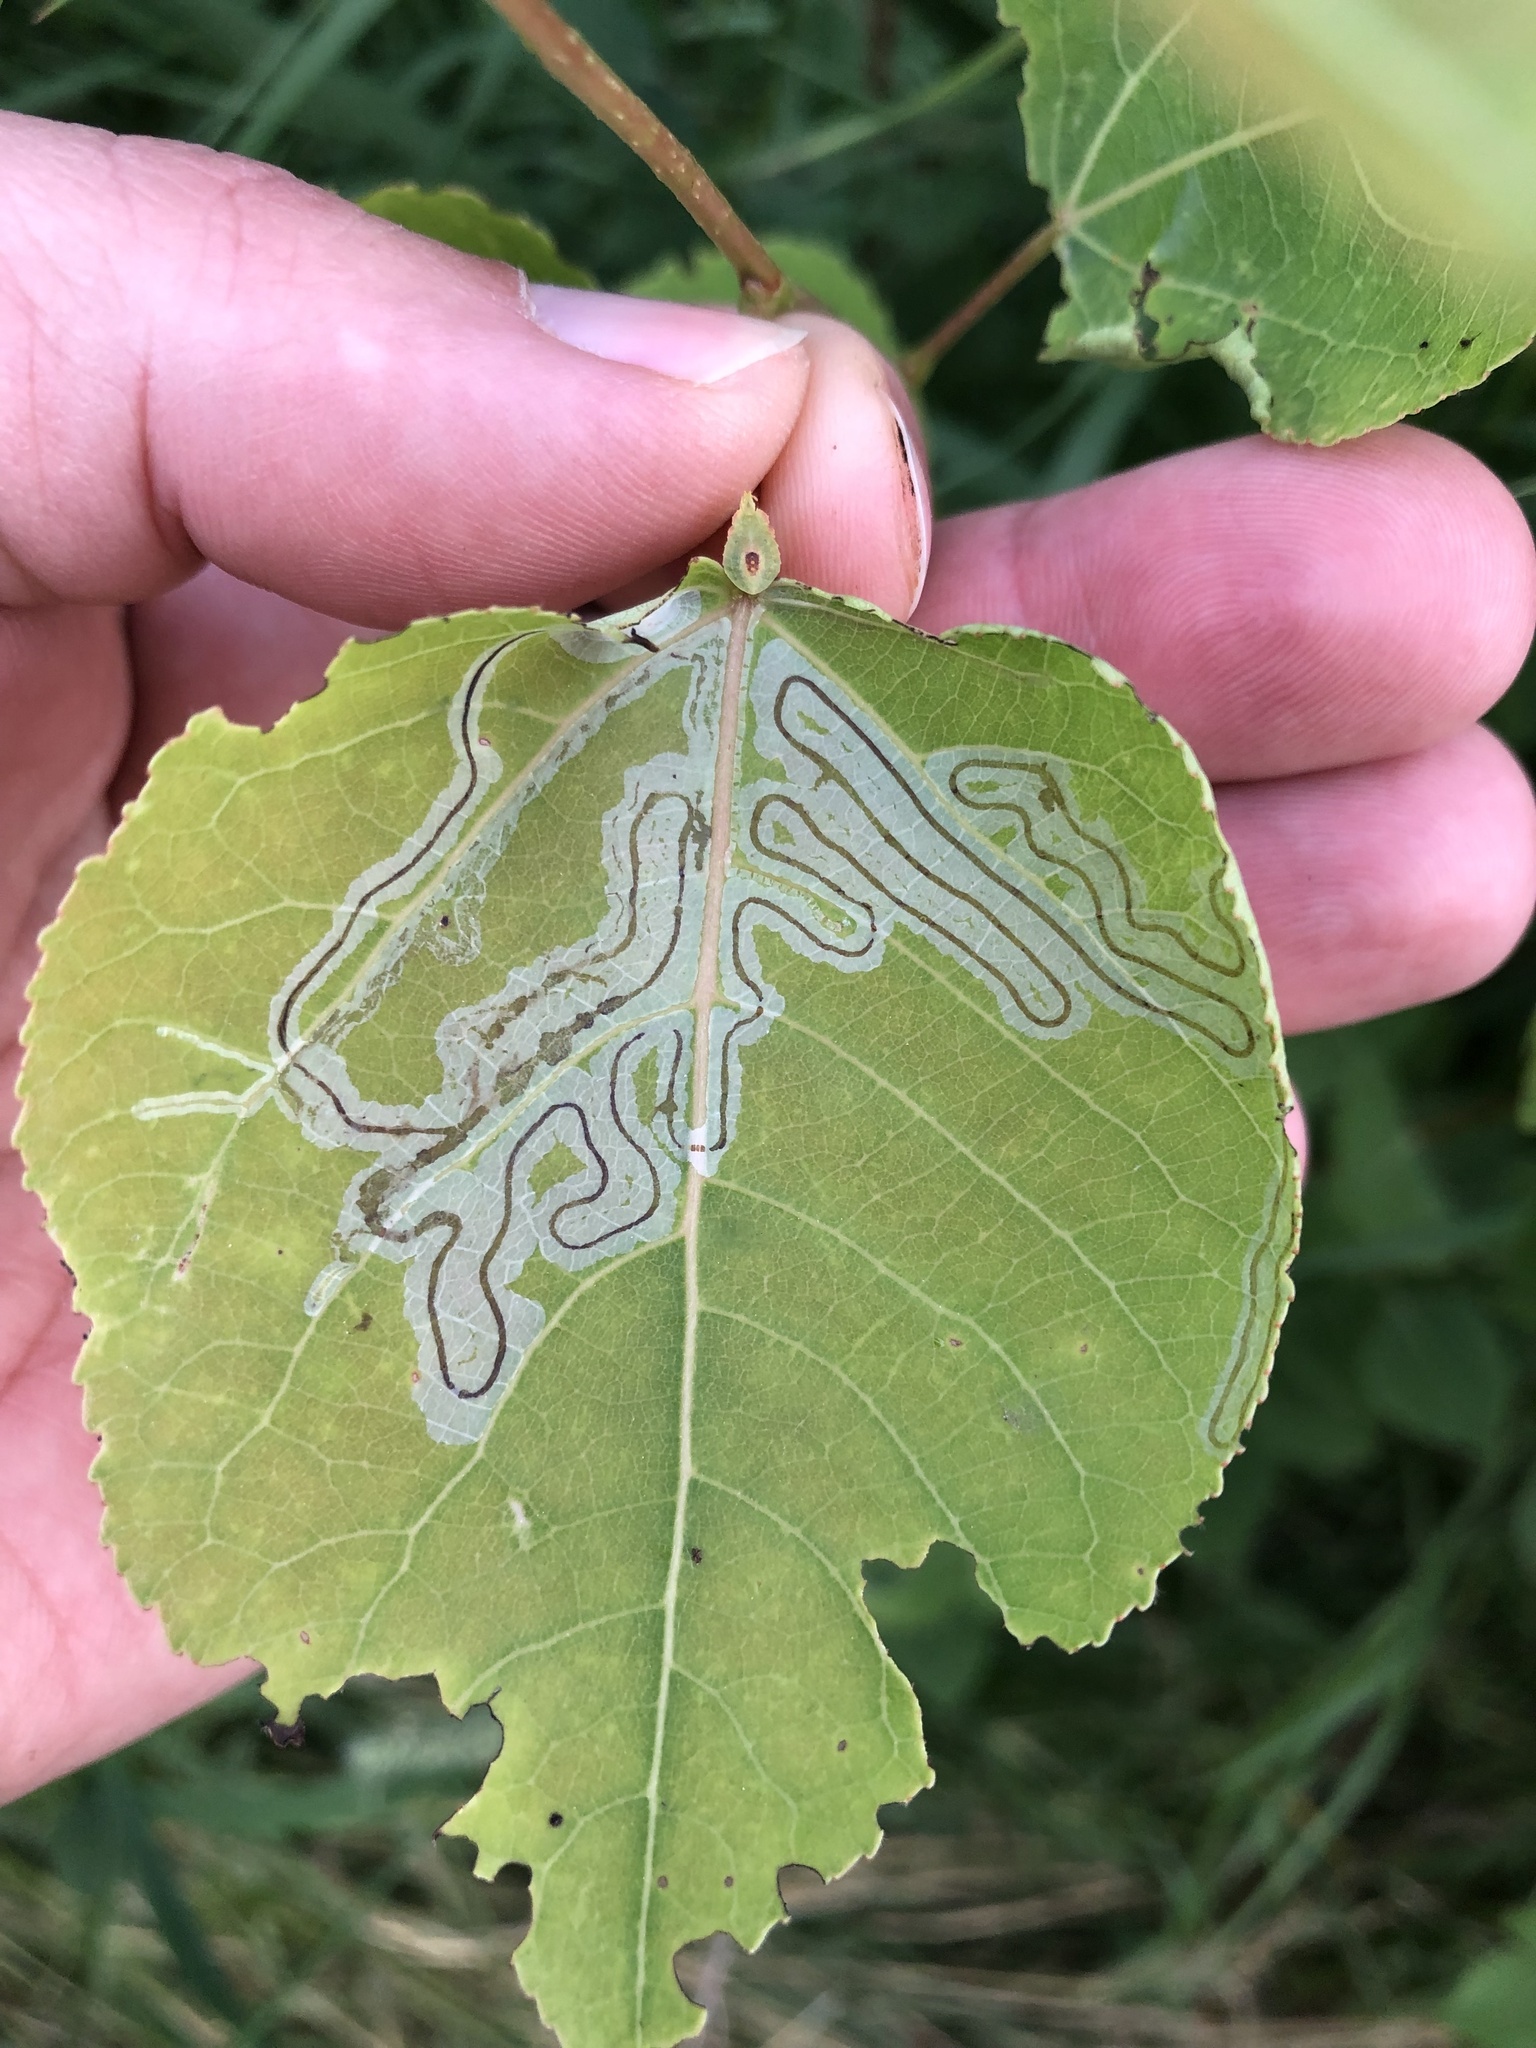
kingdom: Animalia
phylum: Arthropoda
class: Insecta
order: Lepidoptera
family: Gracillariidae
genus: Phyllocnistis
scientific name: Phyllocnistis populiella
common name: Aspen serpentine leafminer moth
